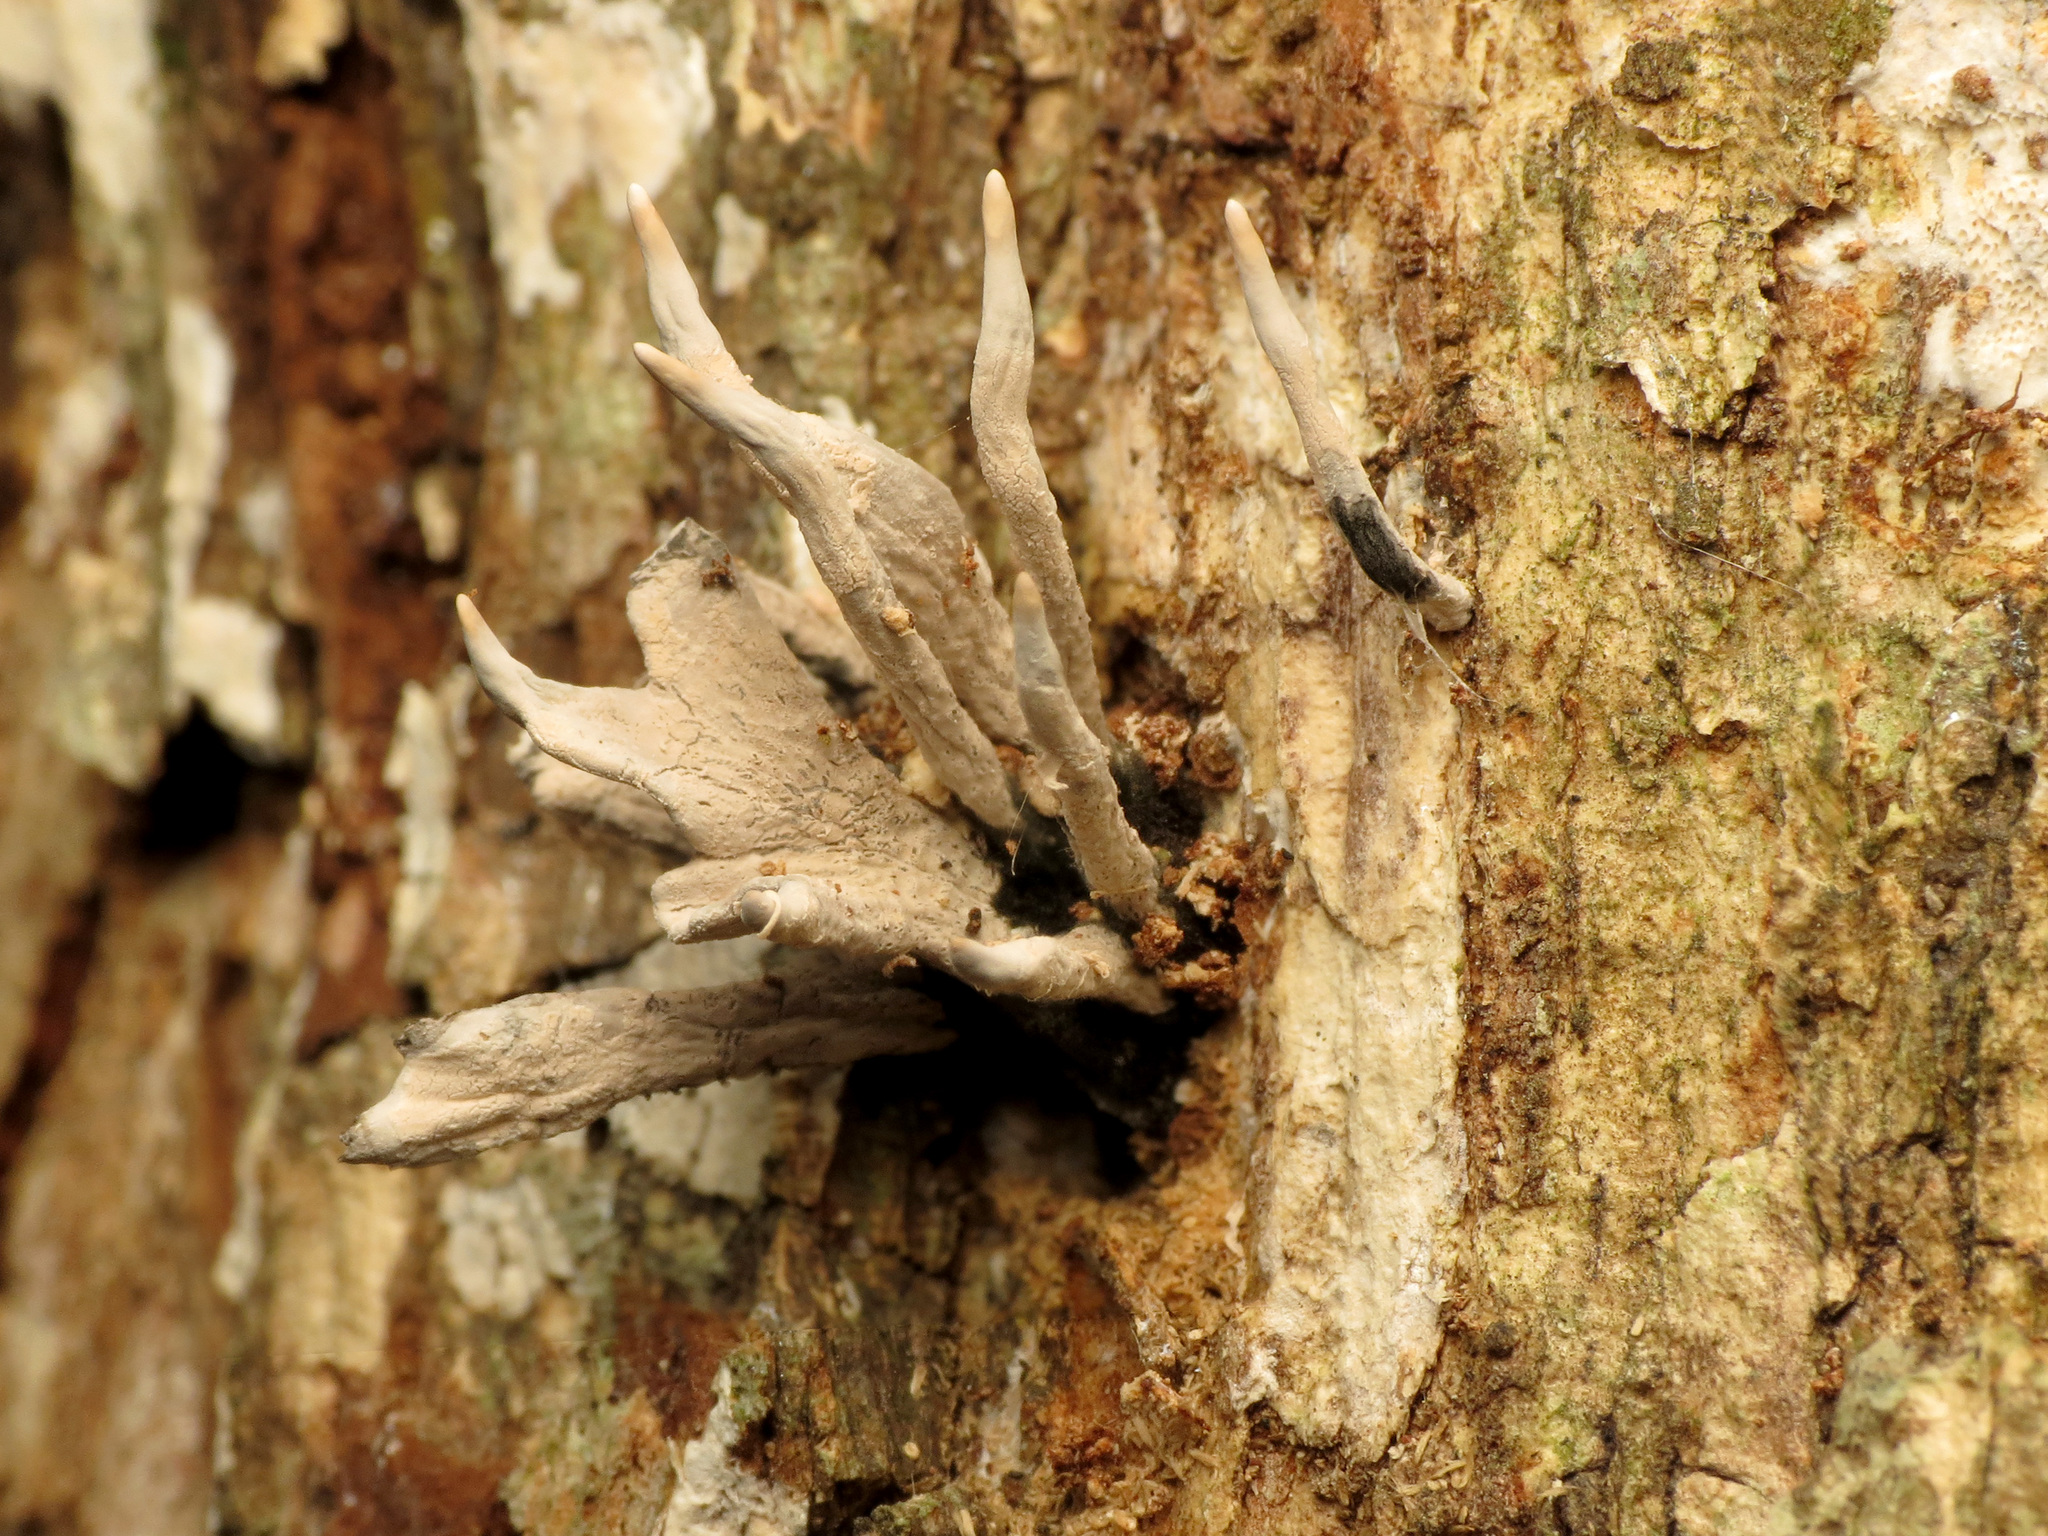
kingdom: Fungi
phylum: Ascomycota
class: Sordariomycetes
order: Xylariales
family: Xylariaceae
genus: Xylaria
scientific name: Xylaria hypoxylon
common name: Candle-snuff fungus
